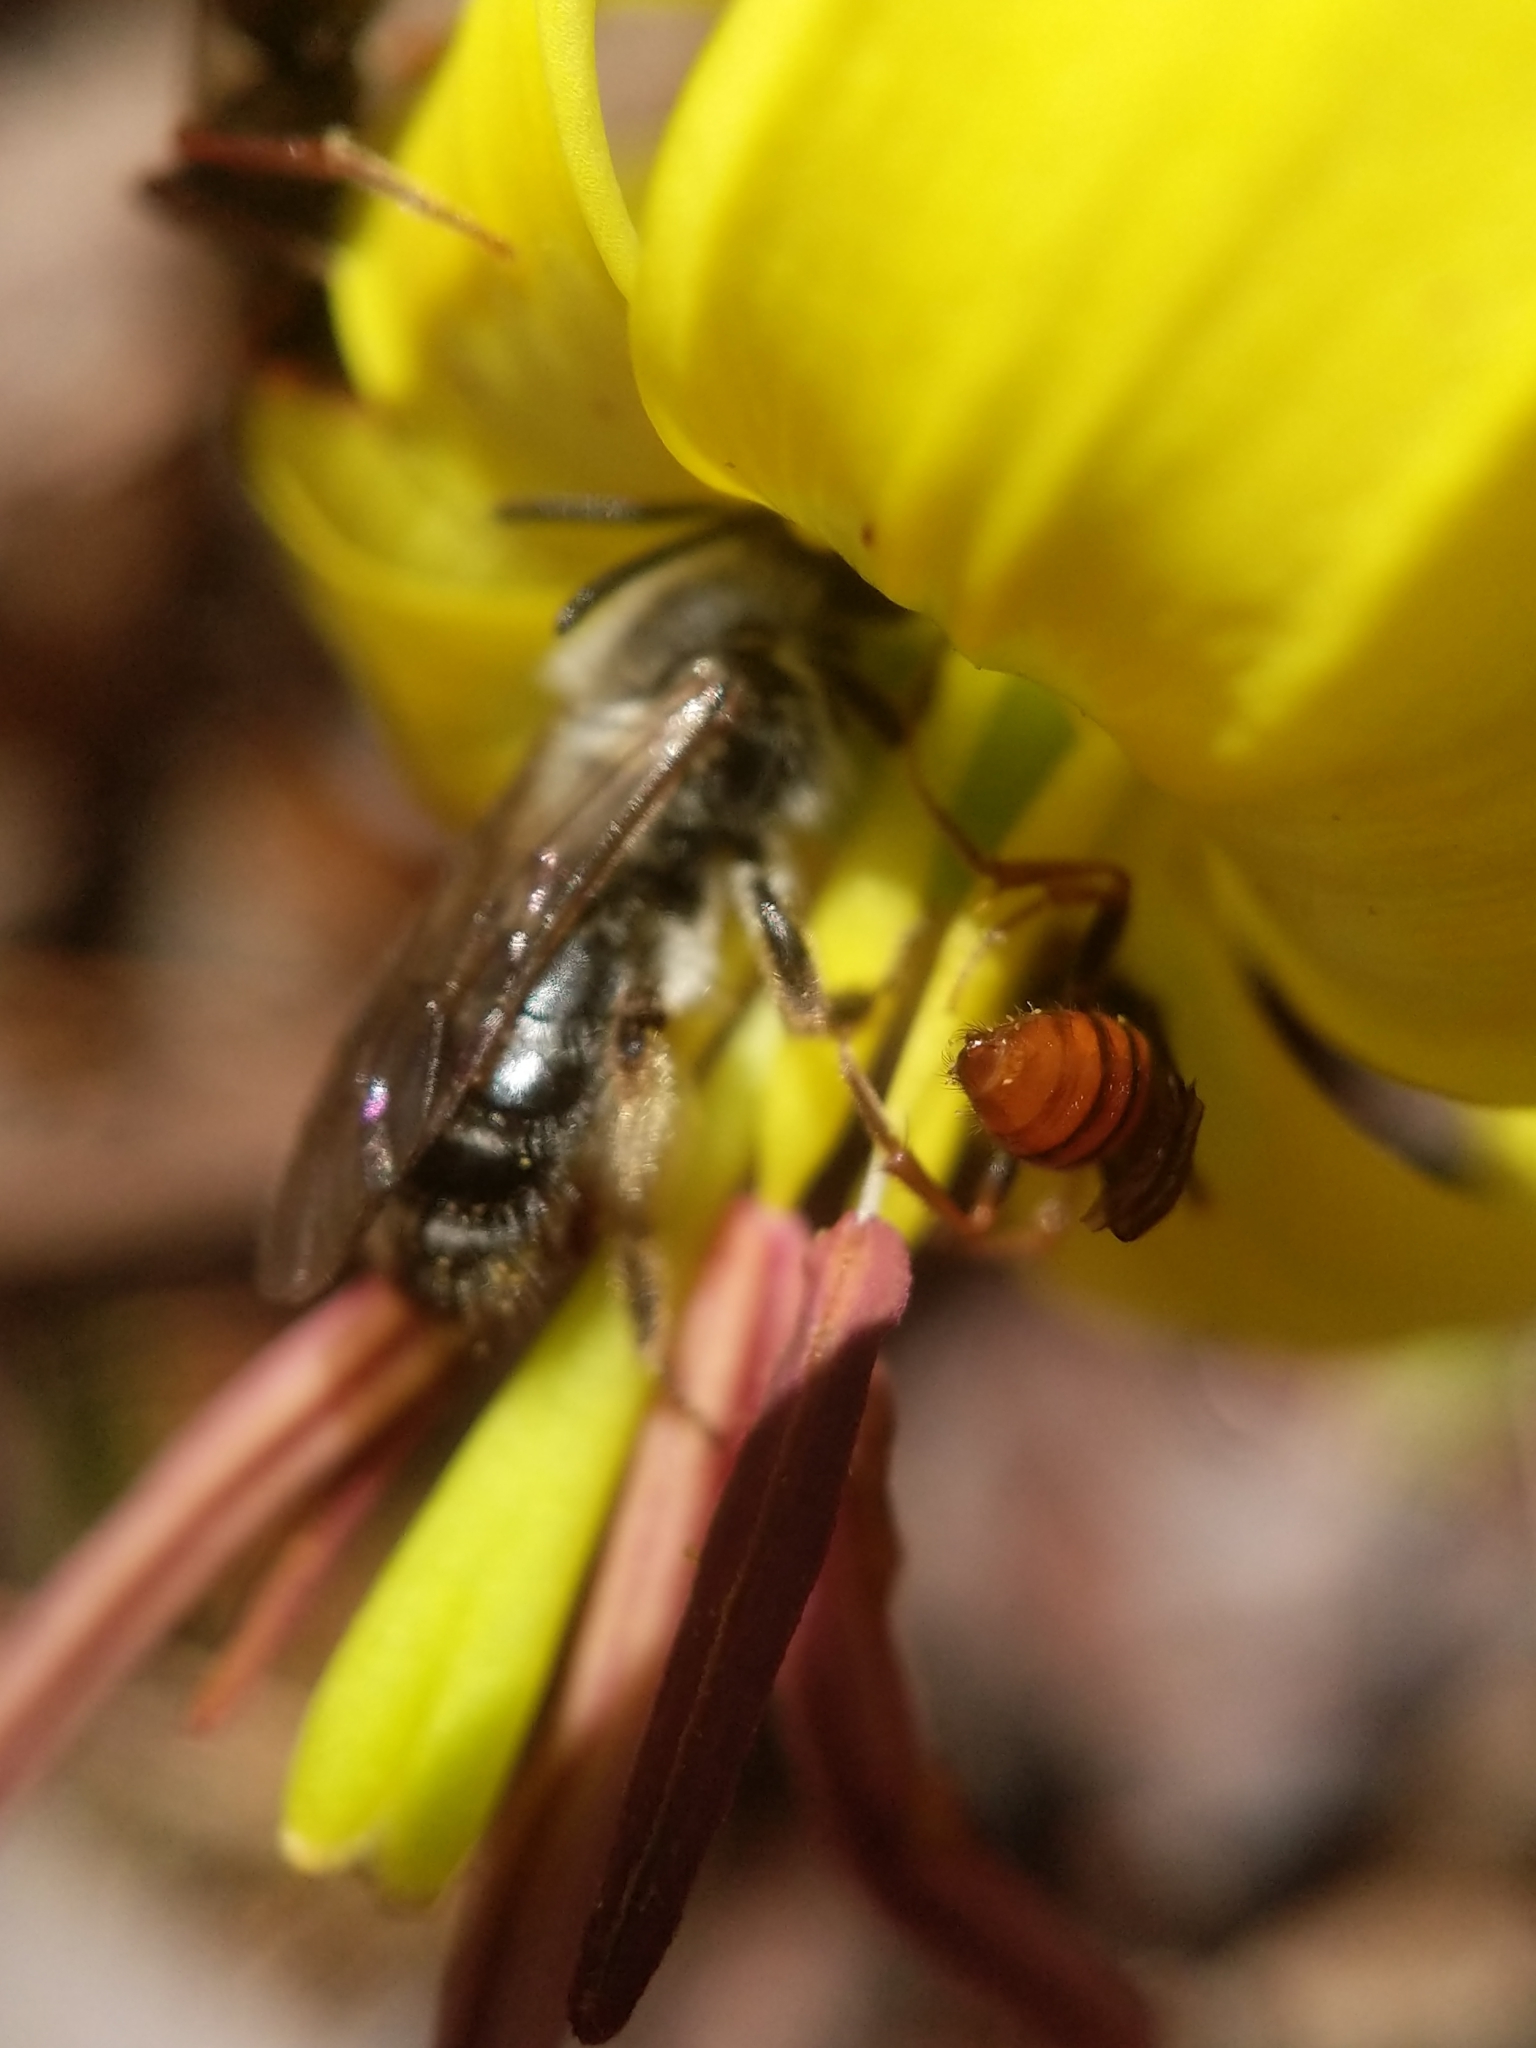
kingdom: Animalia
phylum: Arthropoda
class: Insecta
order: Hymenoptera
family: Apidae
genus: Nomada
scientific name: Nomada
